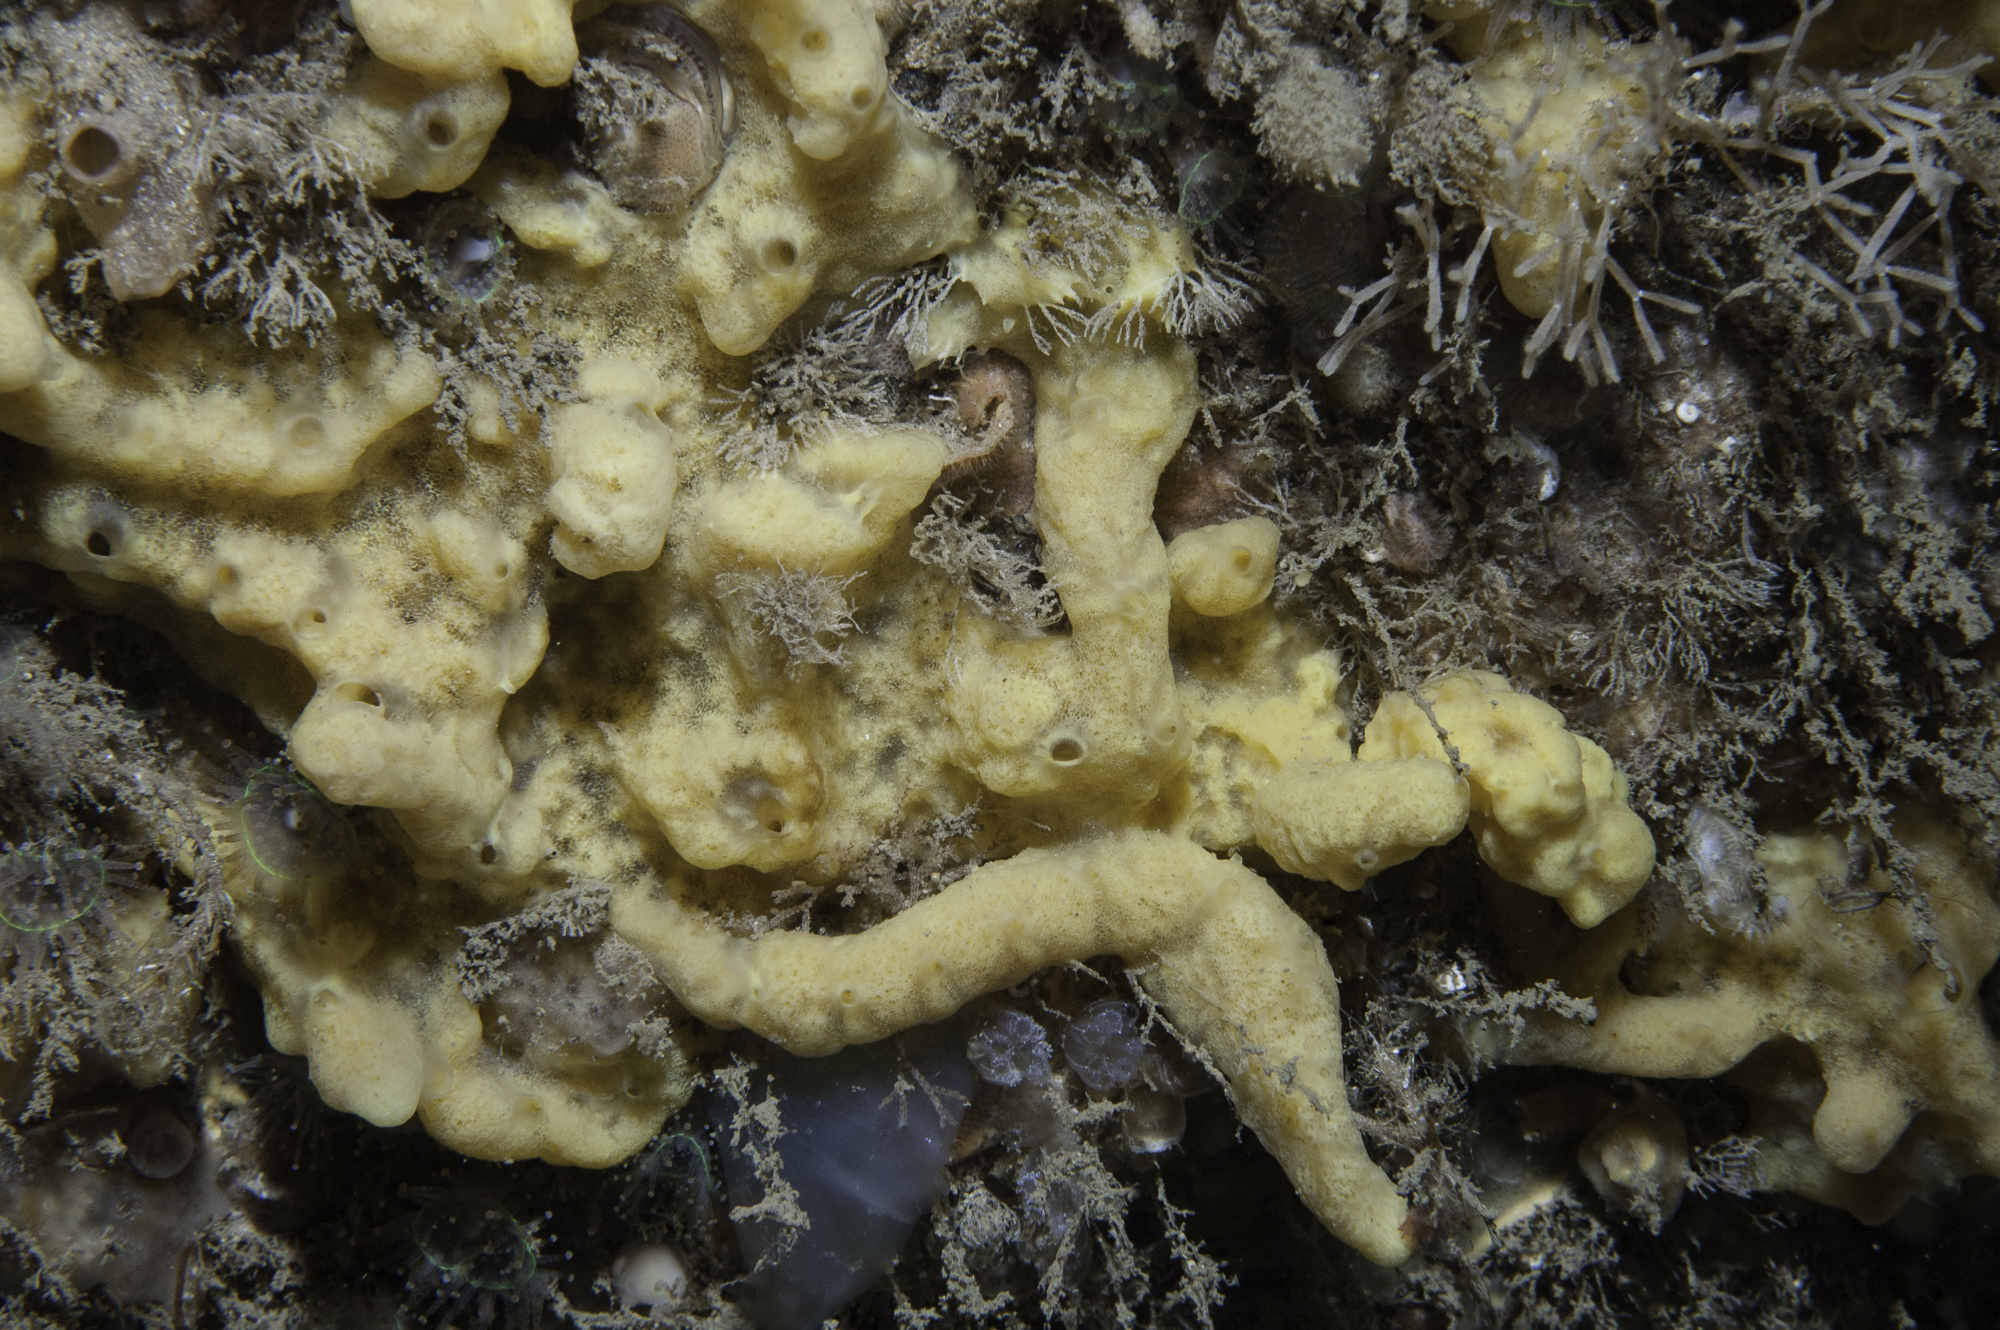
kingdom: Animalia
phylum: Porifera
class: Demospongiae
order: Poecilosclerida
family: Acarnidae
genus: Iophon
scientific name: Iophon nigricans
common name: Yellow-fingered horny sponge
